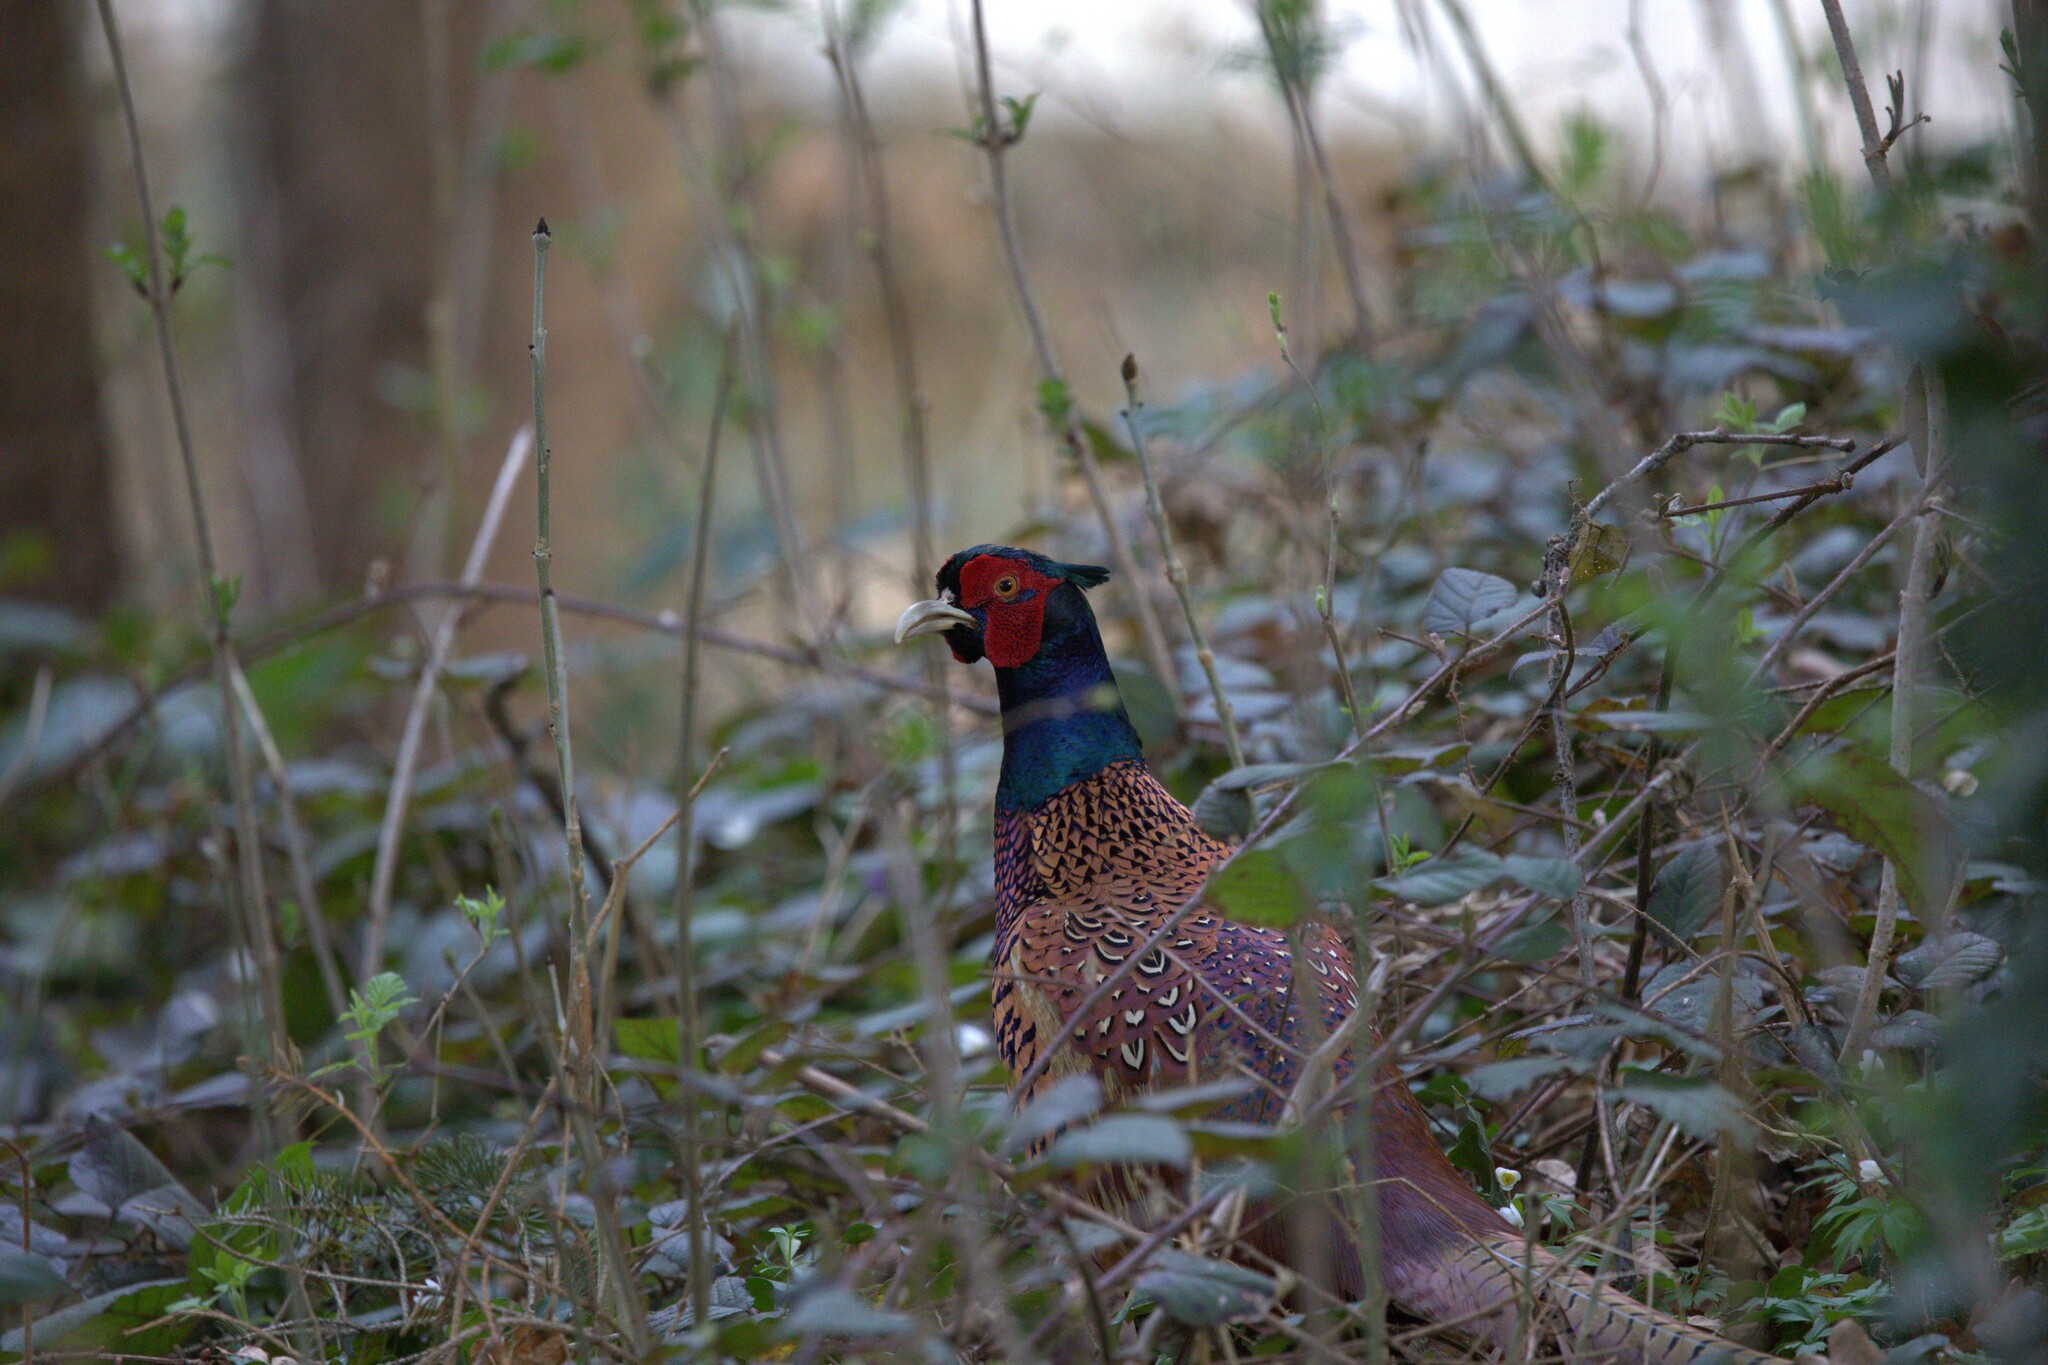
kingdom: Animalia
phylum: Chordata
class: Aves
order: Galliformes
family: Phasianidae
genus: Phasianus
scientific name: Phasianus colchicus
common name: Common pheasant
